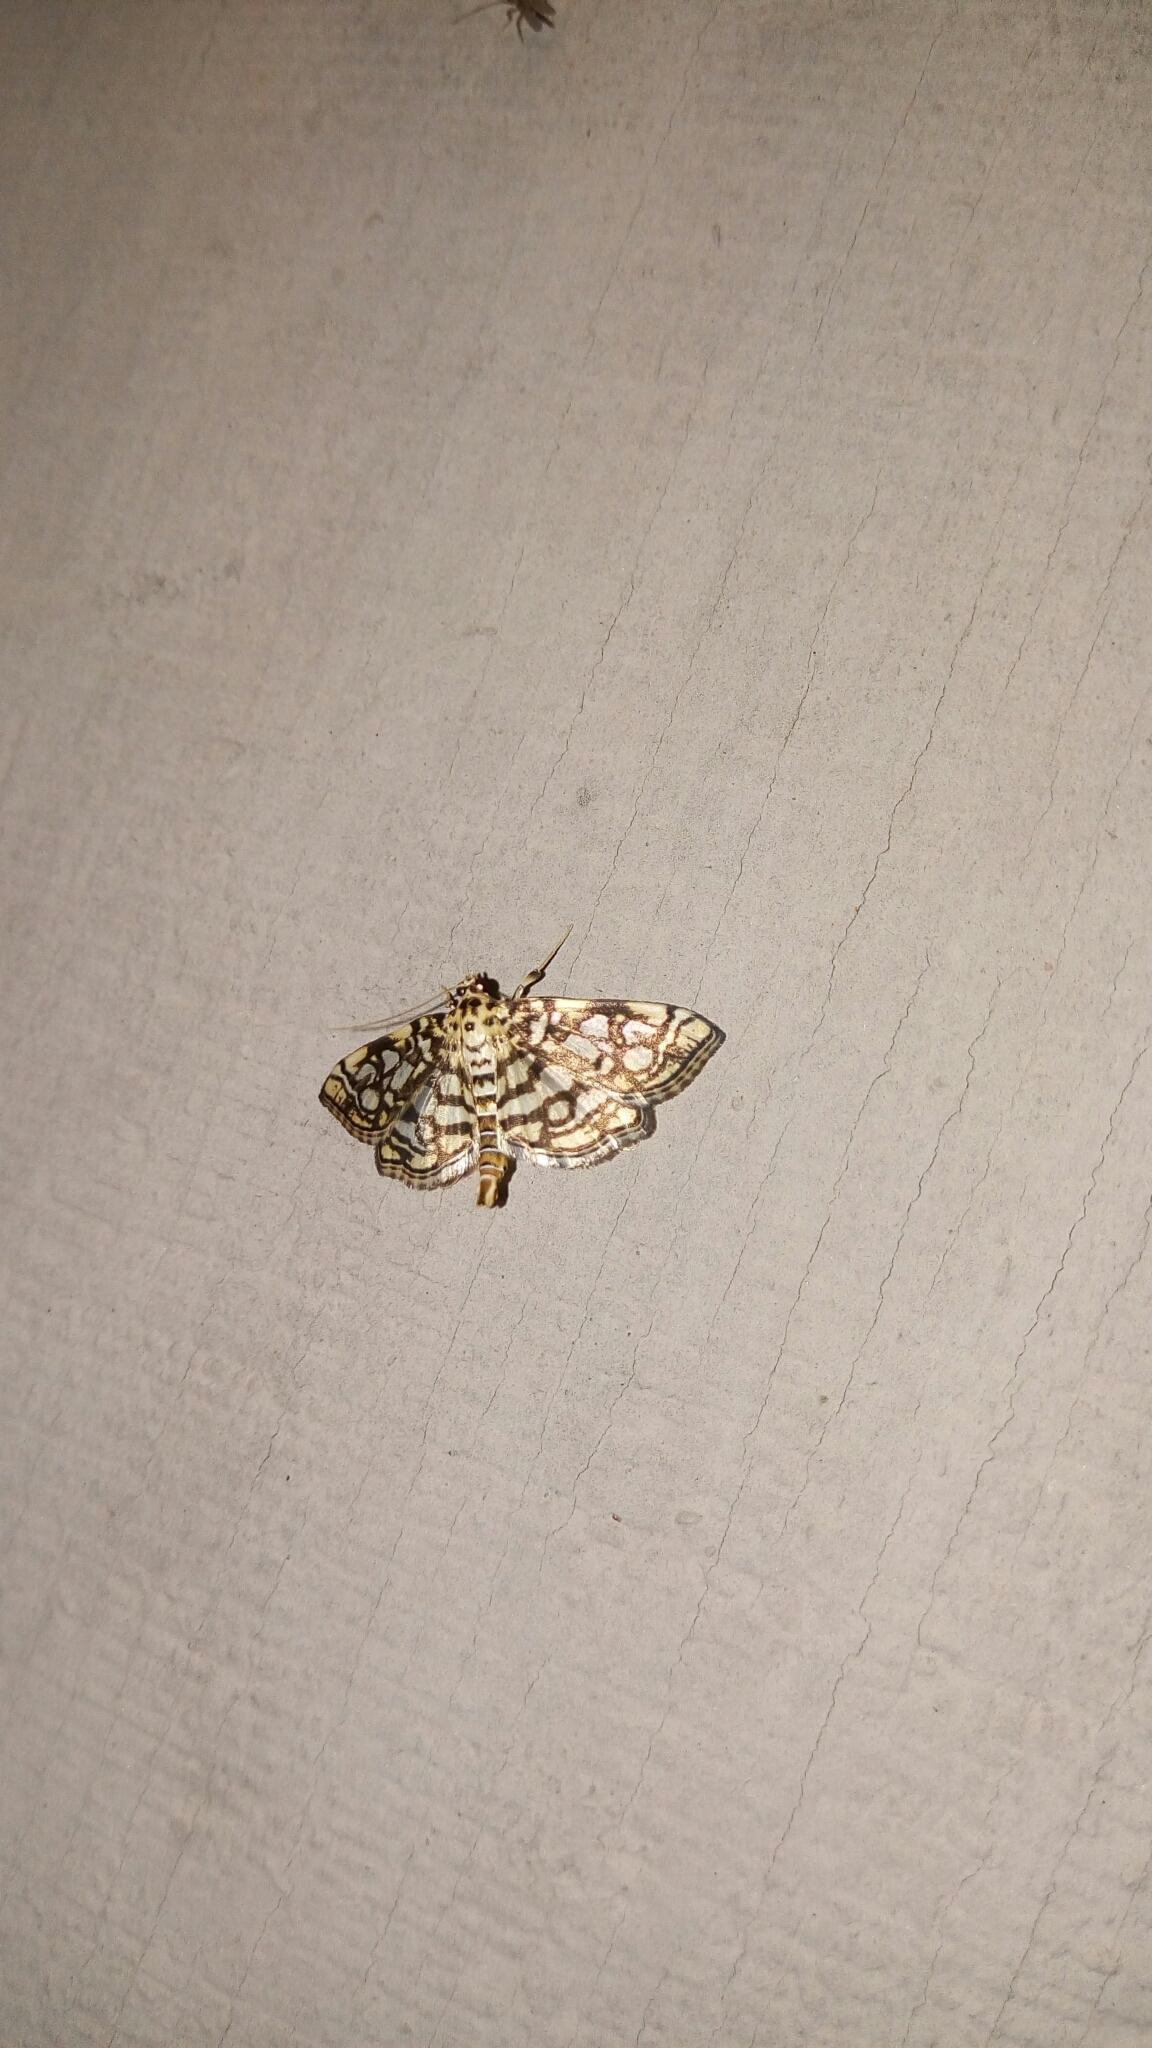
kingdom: Animalia
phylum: Arthropoda
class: Insecta
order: Lepidoptera
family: Crambidae
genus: Lygropia
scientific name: Lygropia rivulalis
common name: Bog lygropia moth
